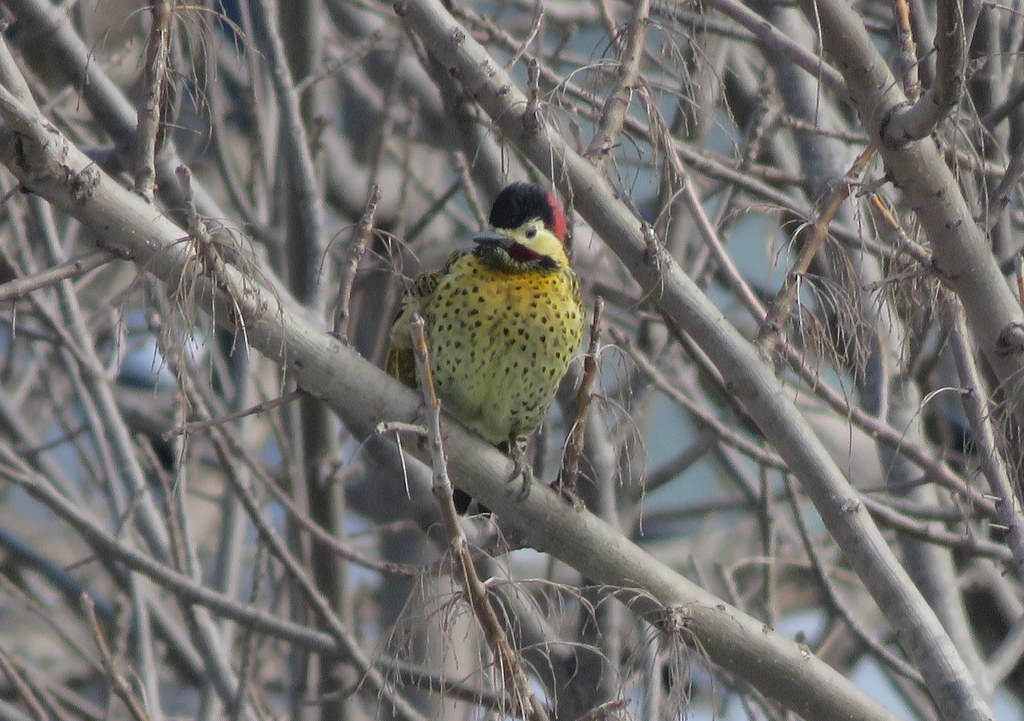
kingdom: Animalia
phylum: Chordata
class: Aves
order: Piciformes
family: Picidae
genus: Colaptes
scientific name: Colaptes melanochloros
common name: Green-barred woodpecker
